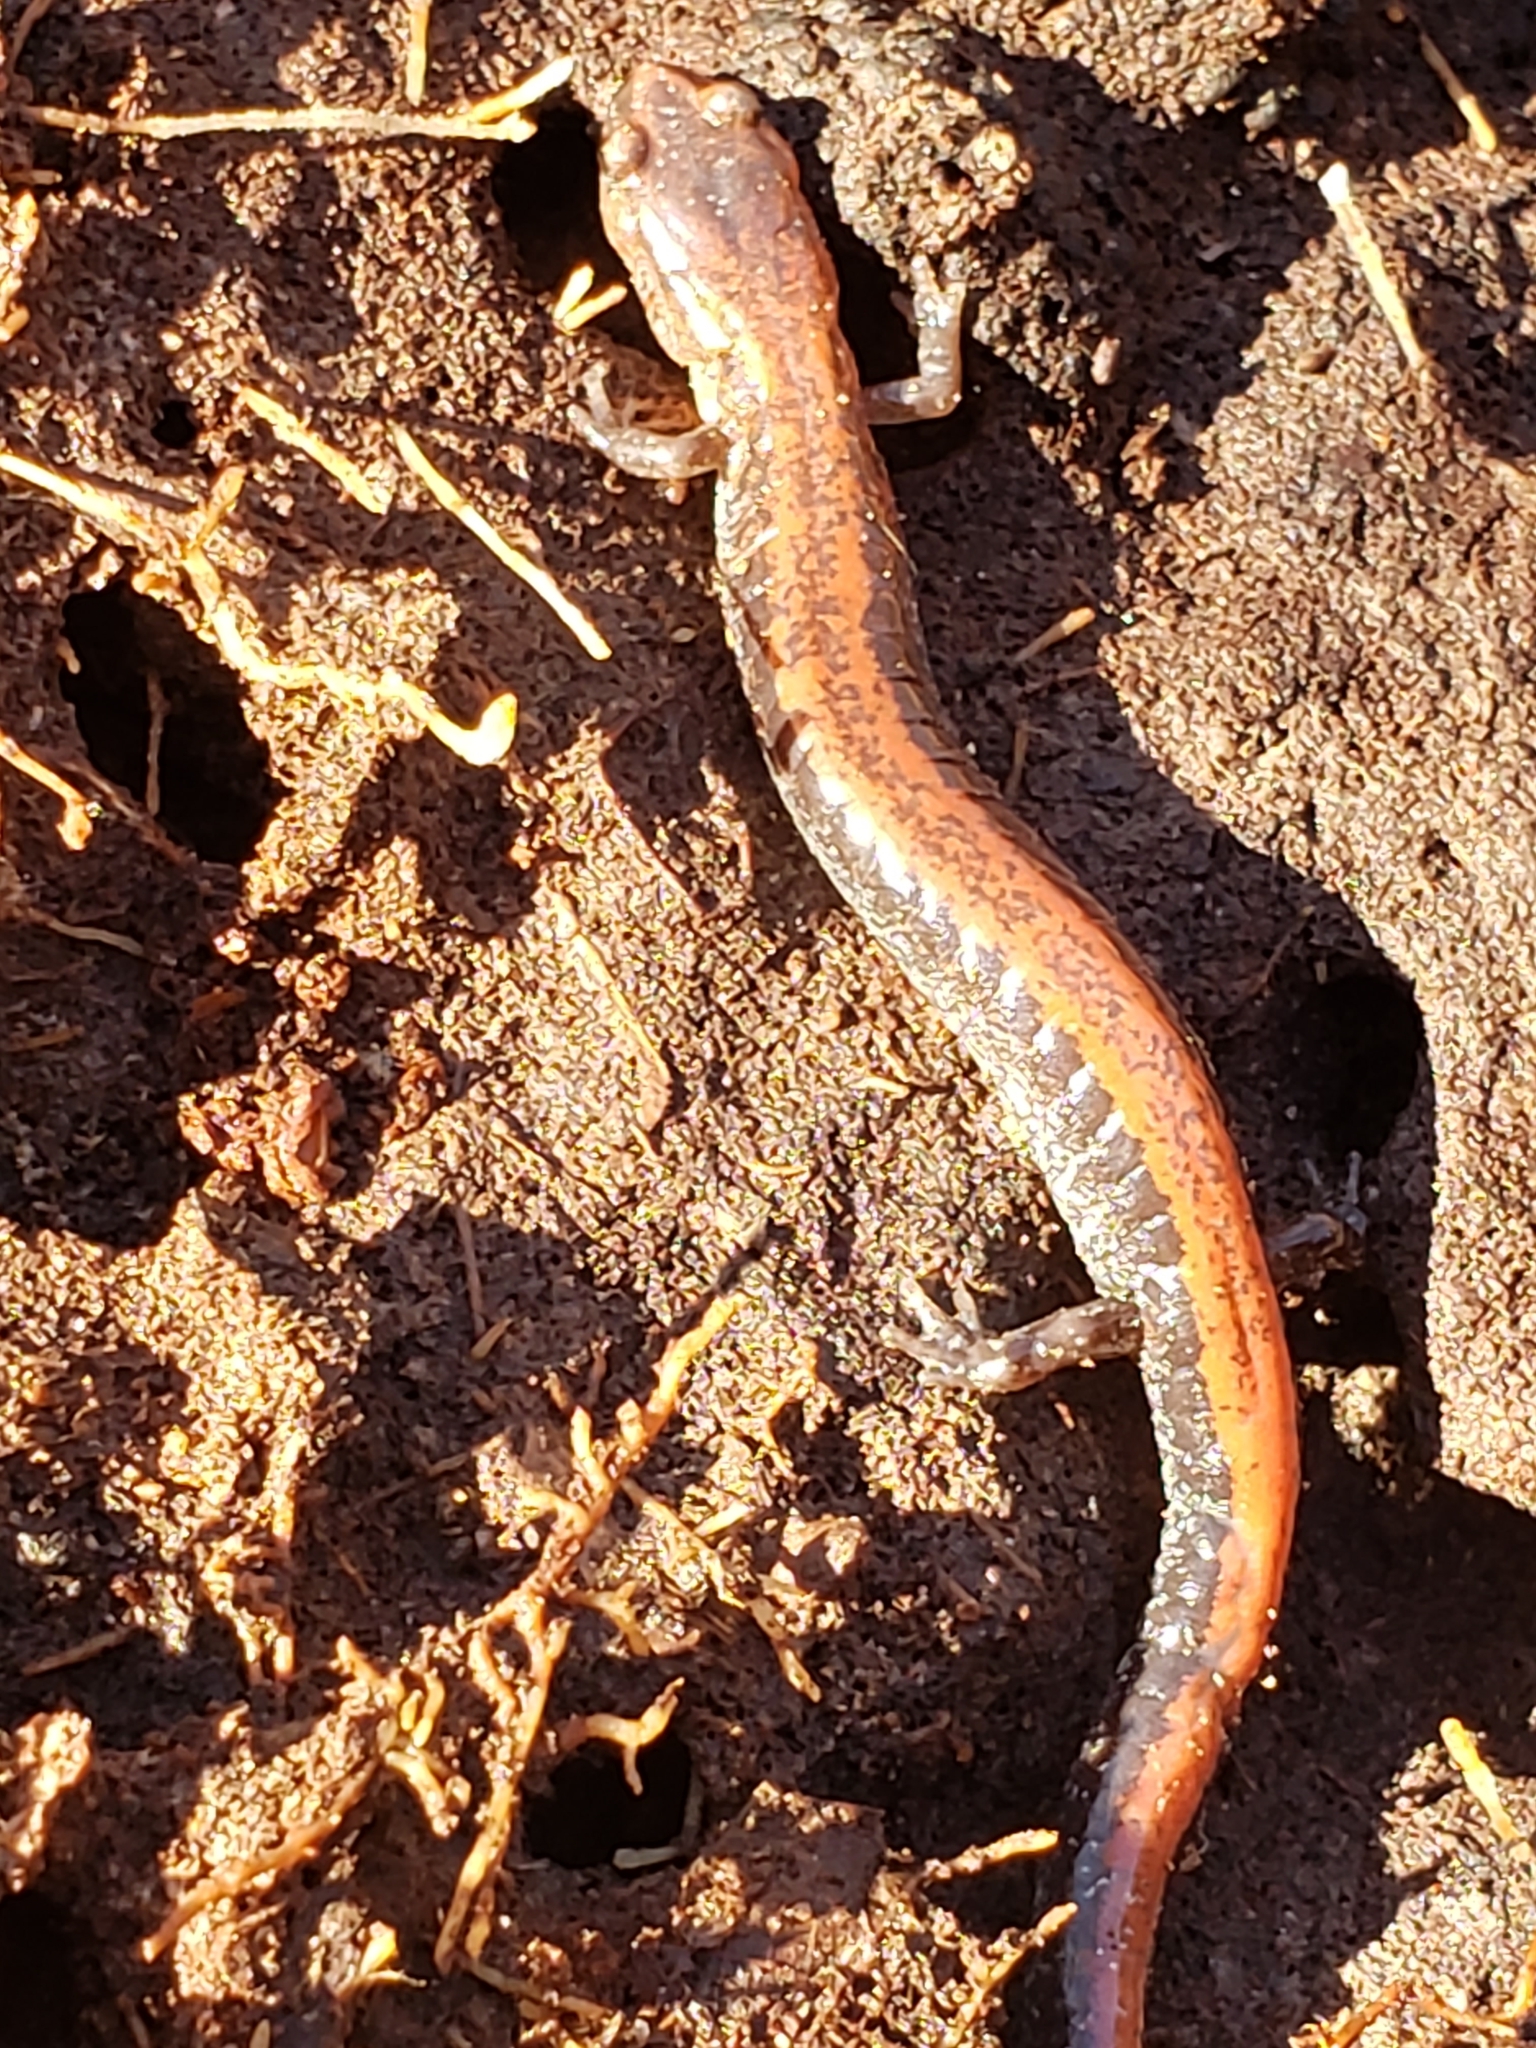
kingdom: Animalia
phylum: Chordata
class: Amphibia
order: Caudata
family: Plethodontidae
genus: Plethodon
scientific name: Plethodon cinereus
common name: Redback salamander
